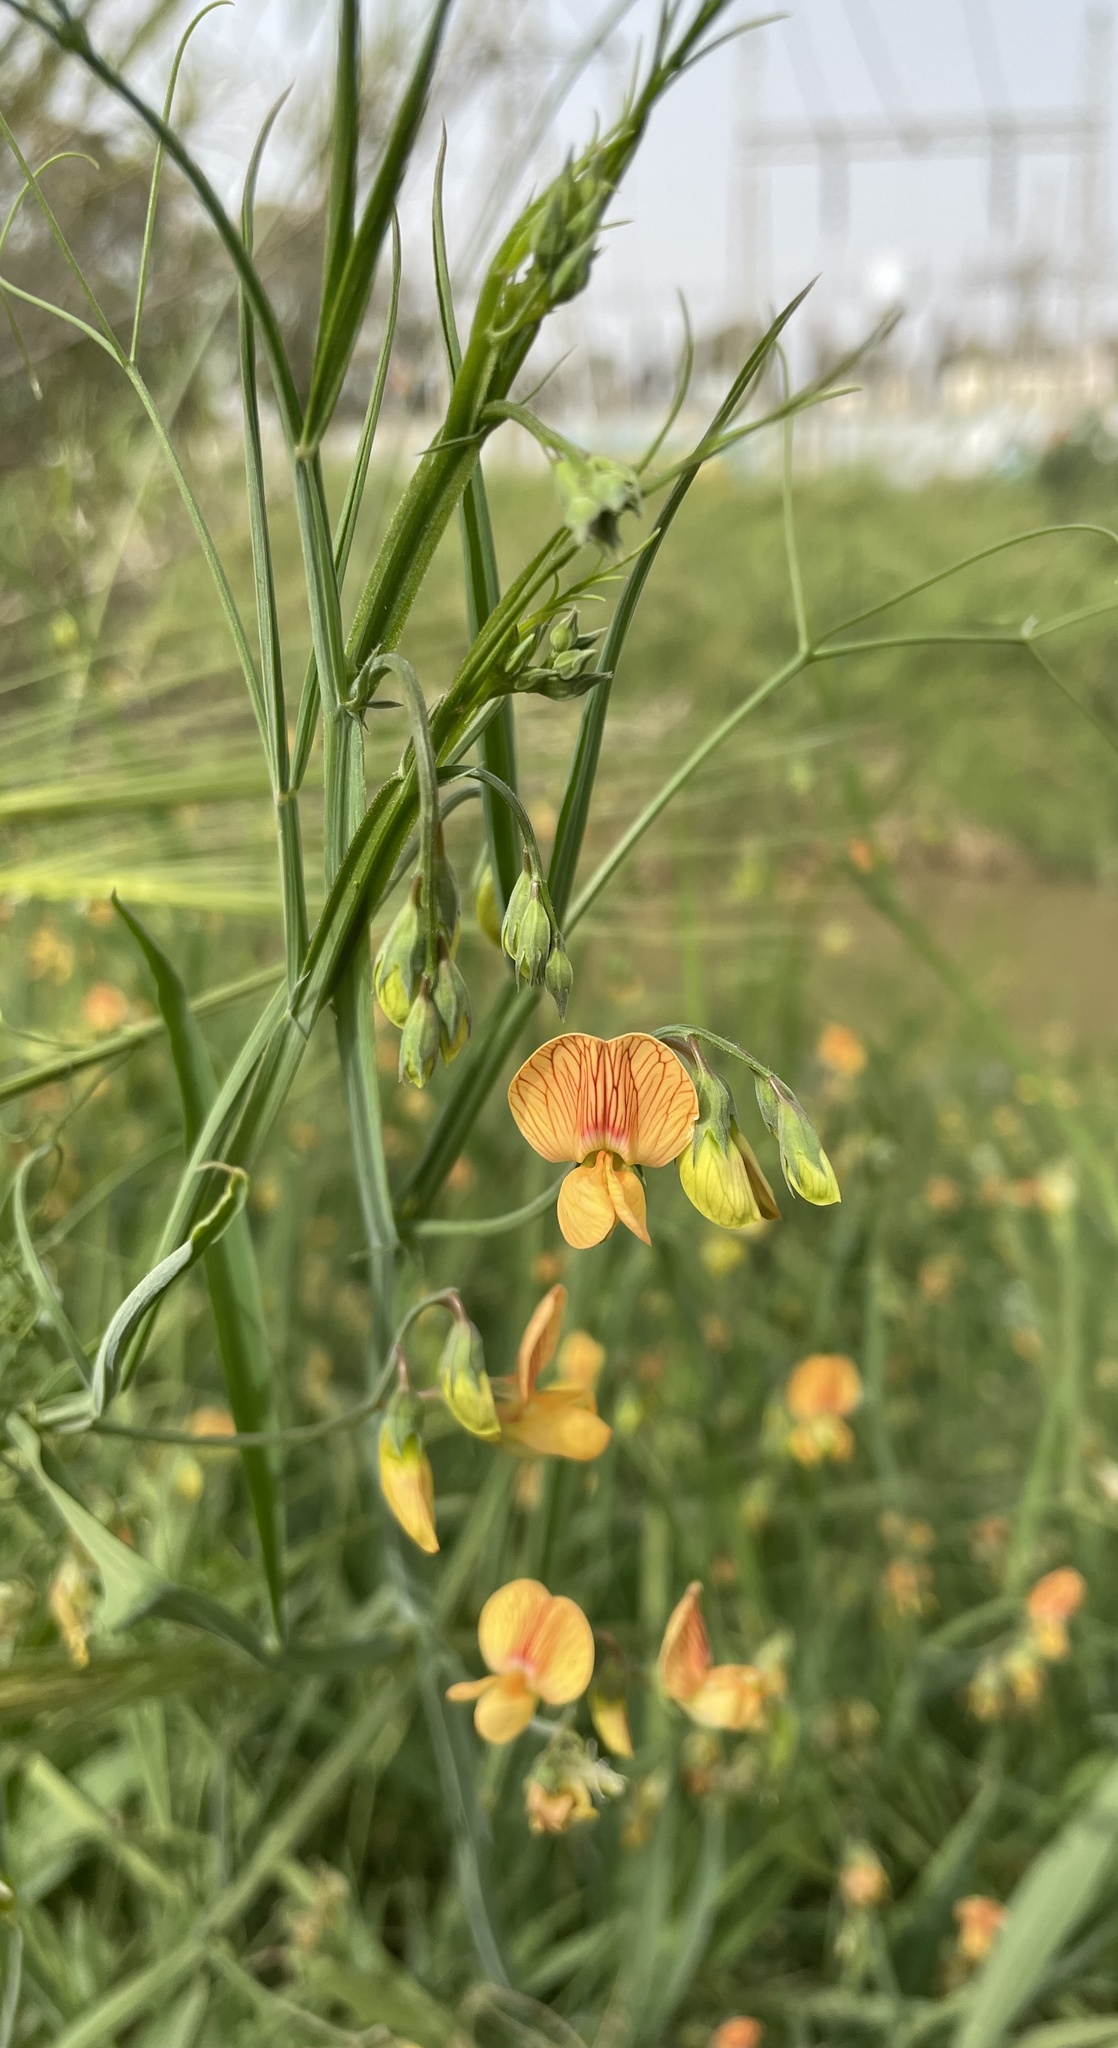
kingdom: Plantae
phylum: Tracheophyta
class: Magnoliopsida
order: Fabales
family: Fabaceae
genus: Lathyrus
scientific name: Lathyrus hierosolymitanus
